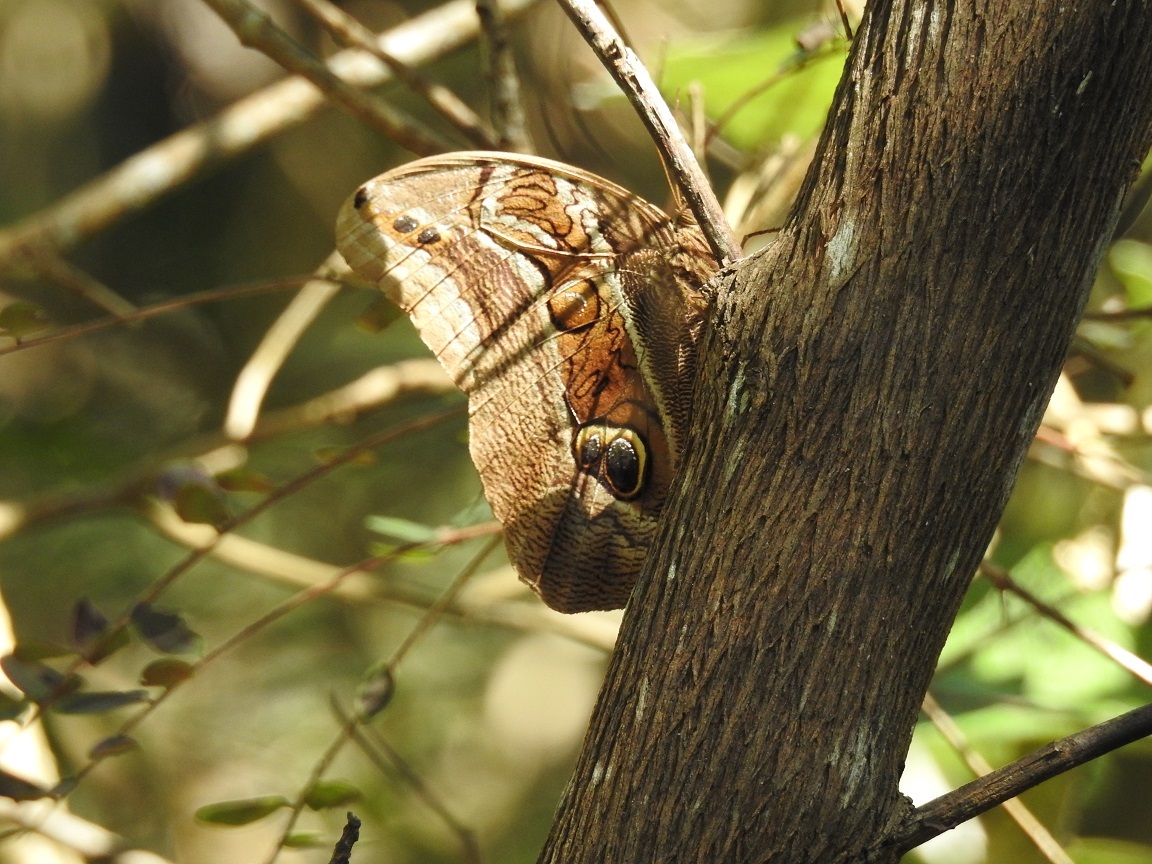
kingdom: Animalia
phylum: Arthropoda
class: Insecta
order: Lepidoptera
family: Nymphalidae
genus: Eryphanis
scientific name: Eryphanis aesacus
